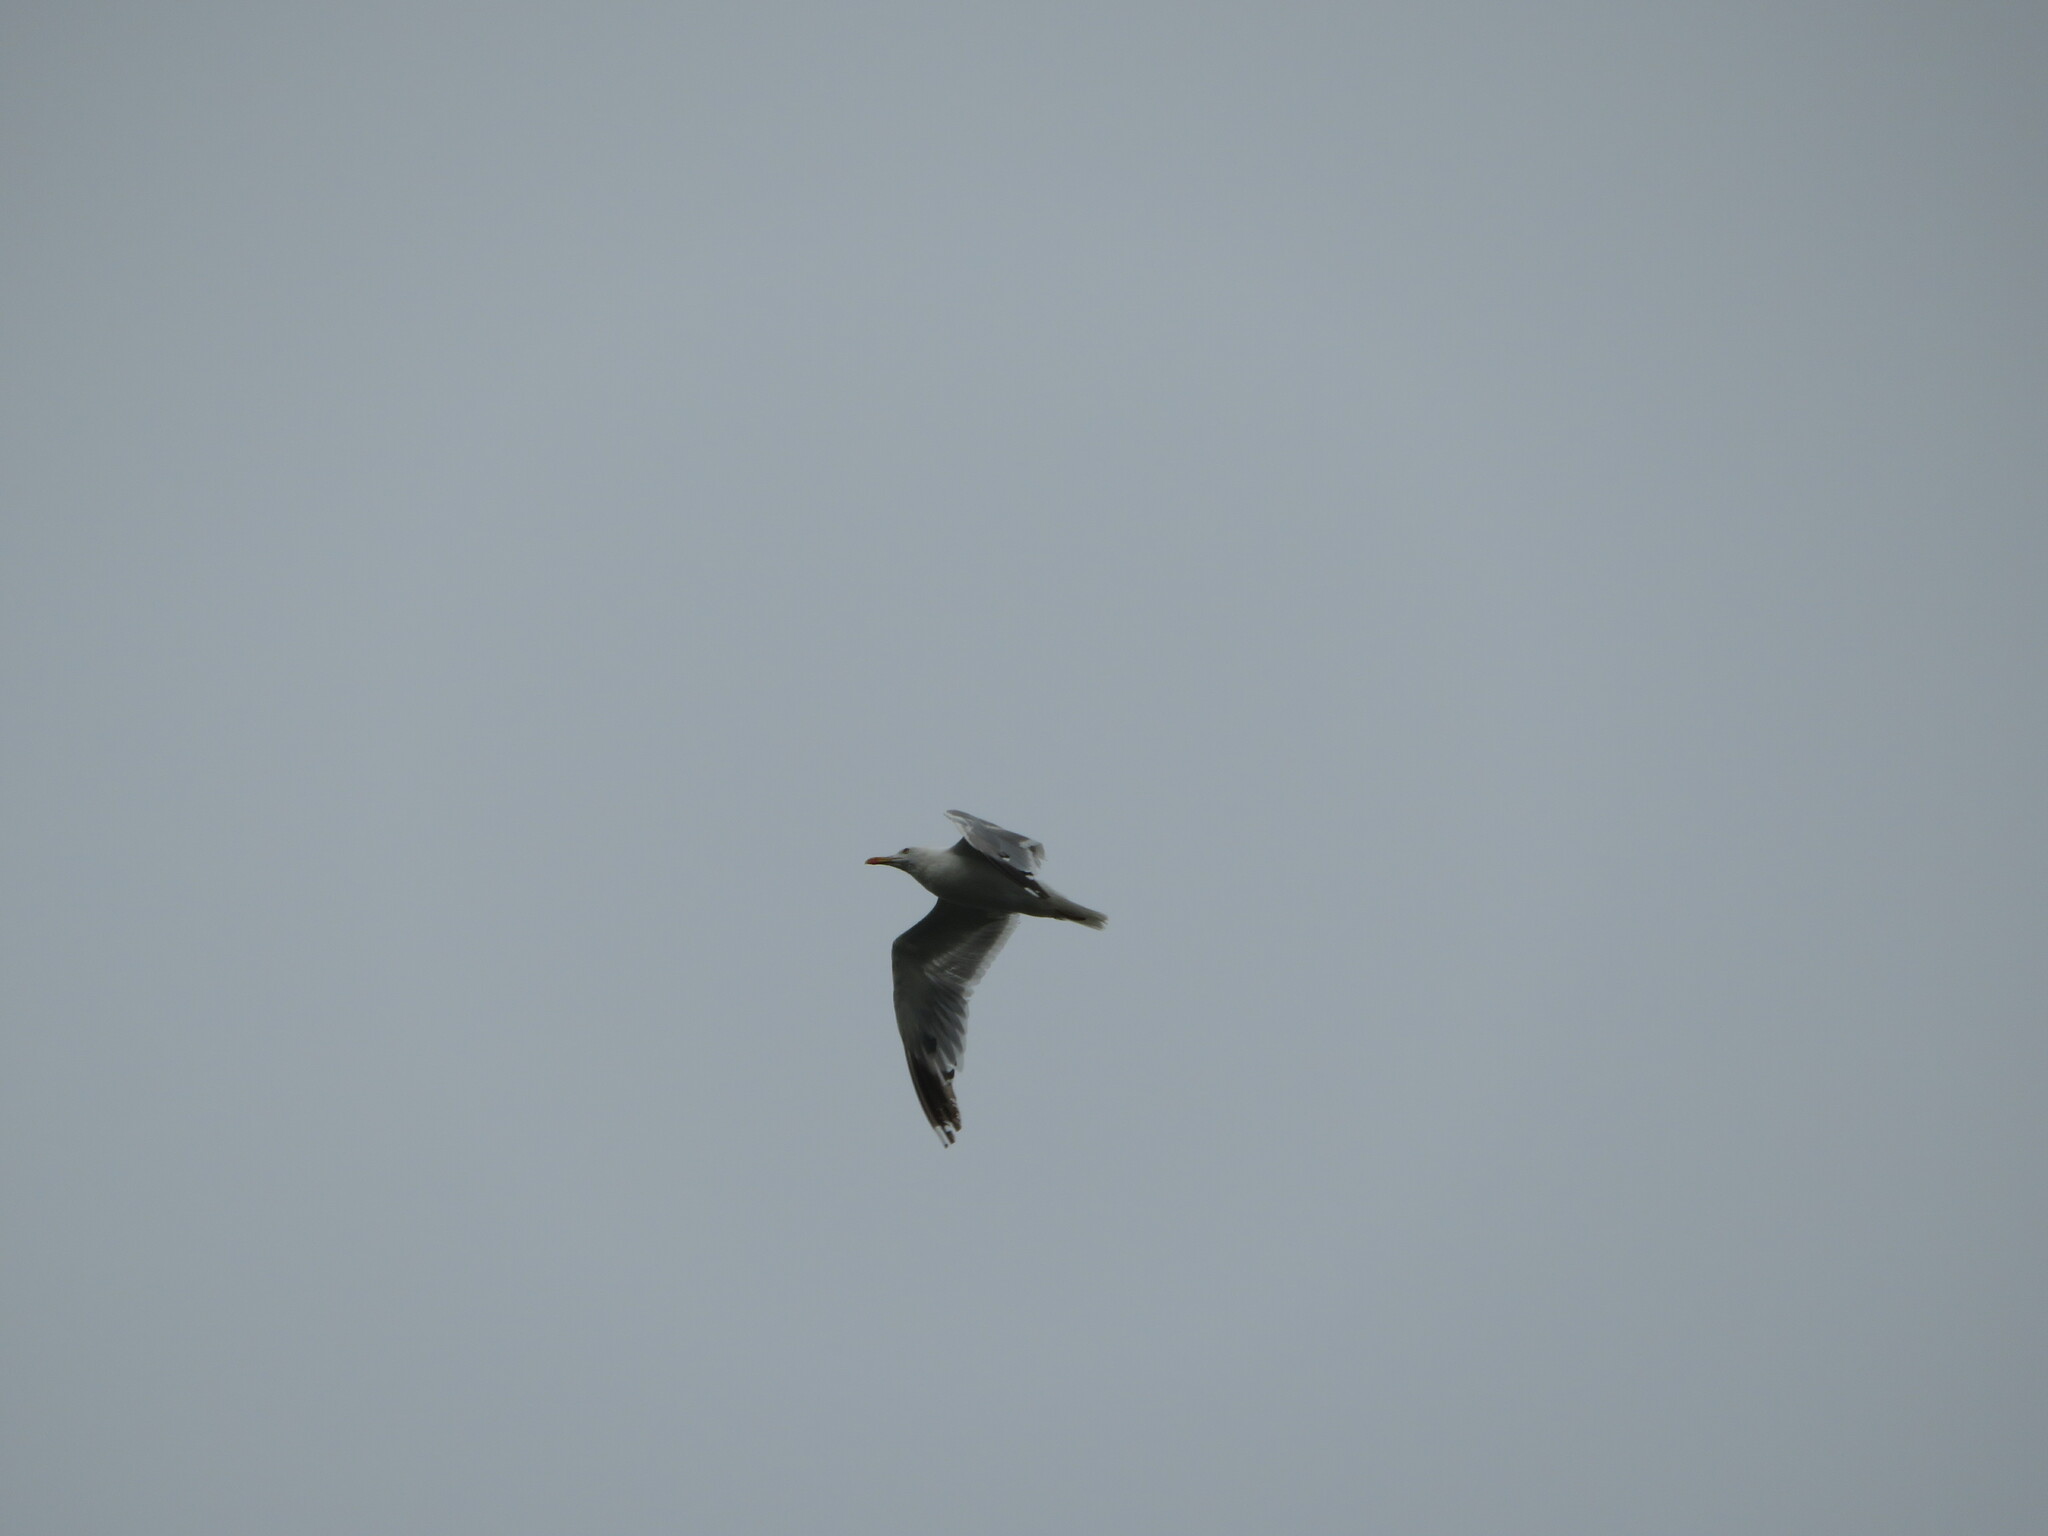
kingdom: Animalia
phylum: Chordata
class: Aves
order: Charadriiformes
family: Laridae
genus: Larus
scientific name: Larus michahellis
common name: Yellow-legged gull
